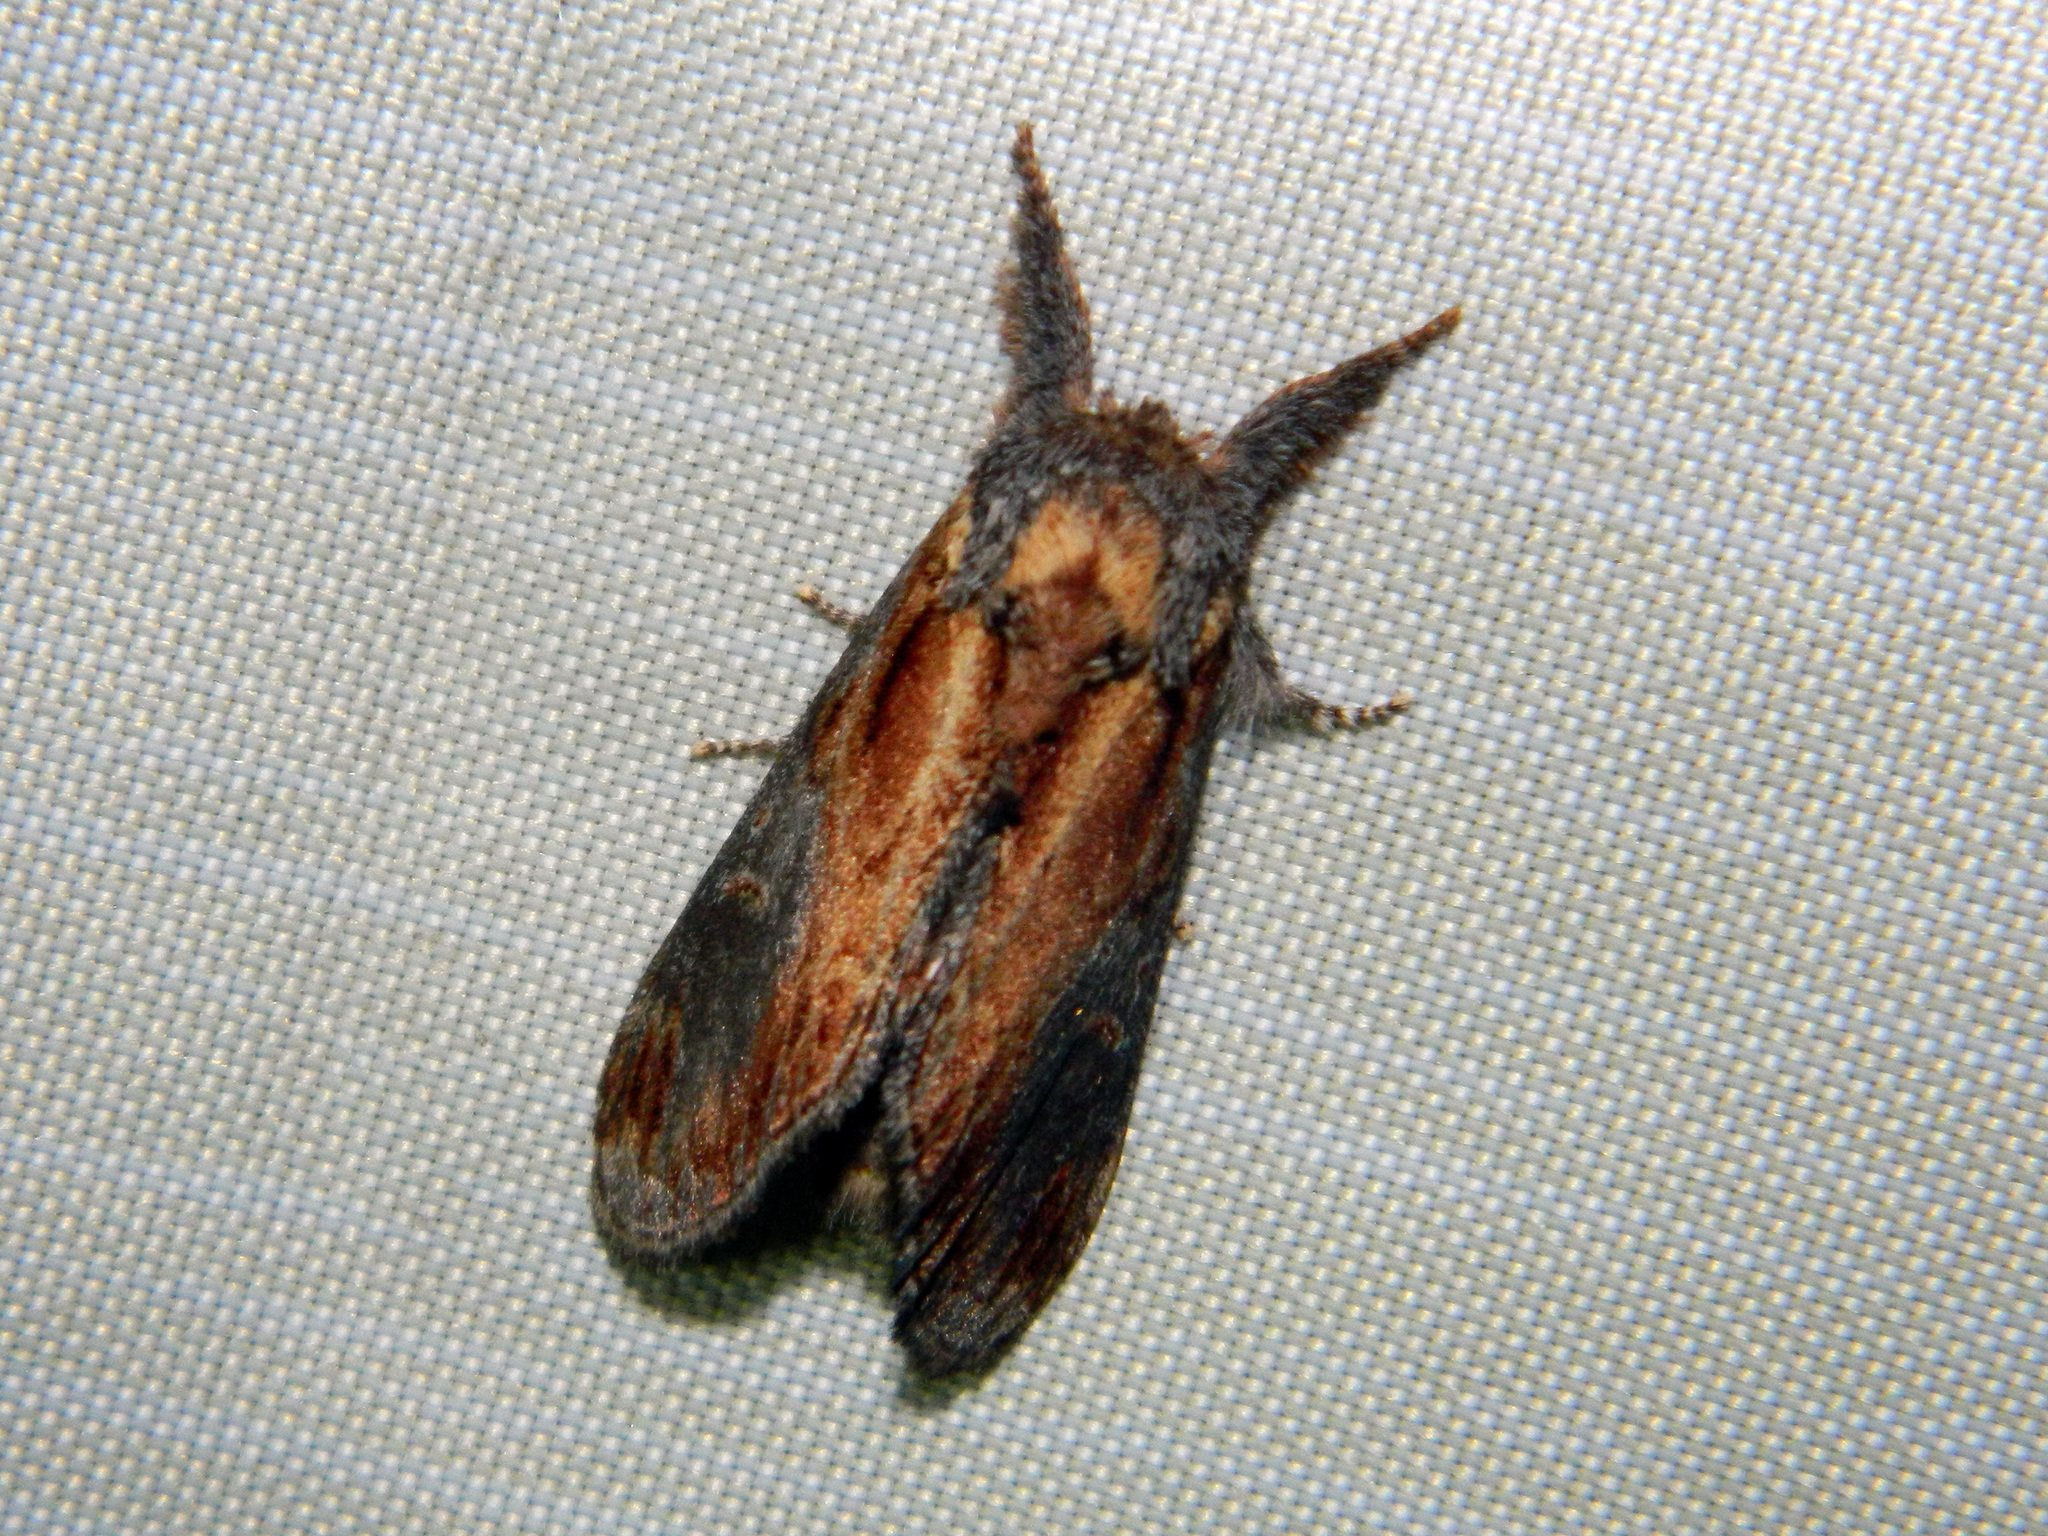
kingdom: Animalia
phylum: Arthropoda
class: Insecta
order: Lepidoptera
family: Notodontidae
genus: Notodonta
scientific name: Notodonta scitipennis
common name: Finned-willow prominent moth
